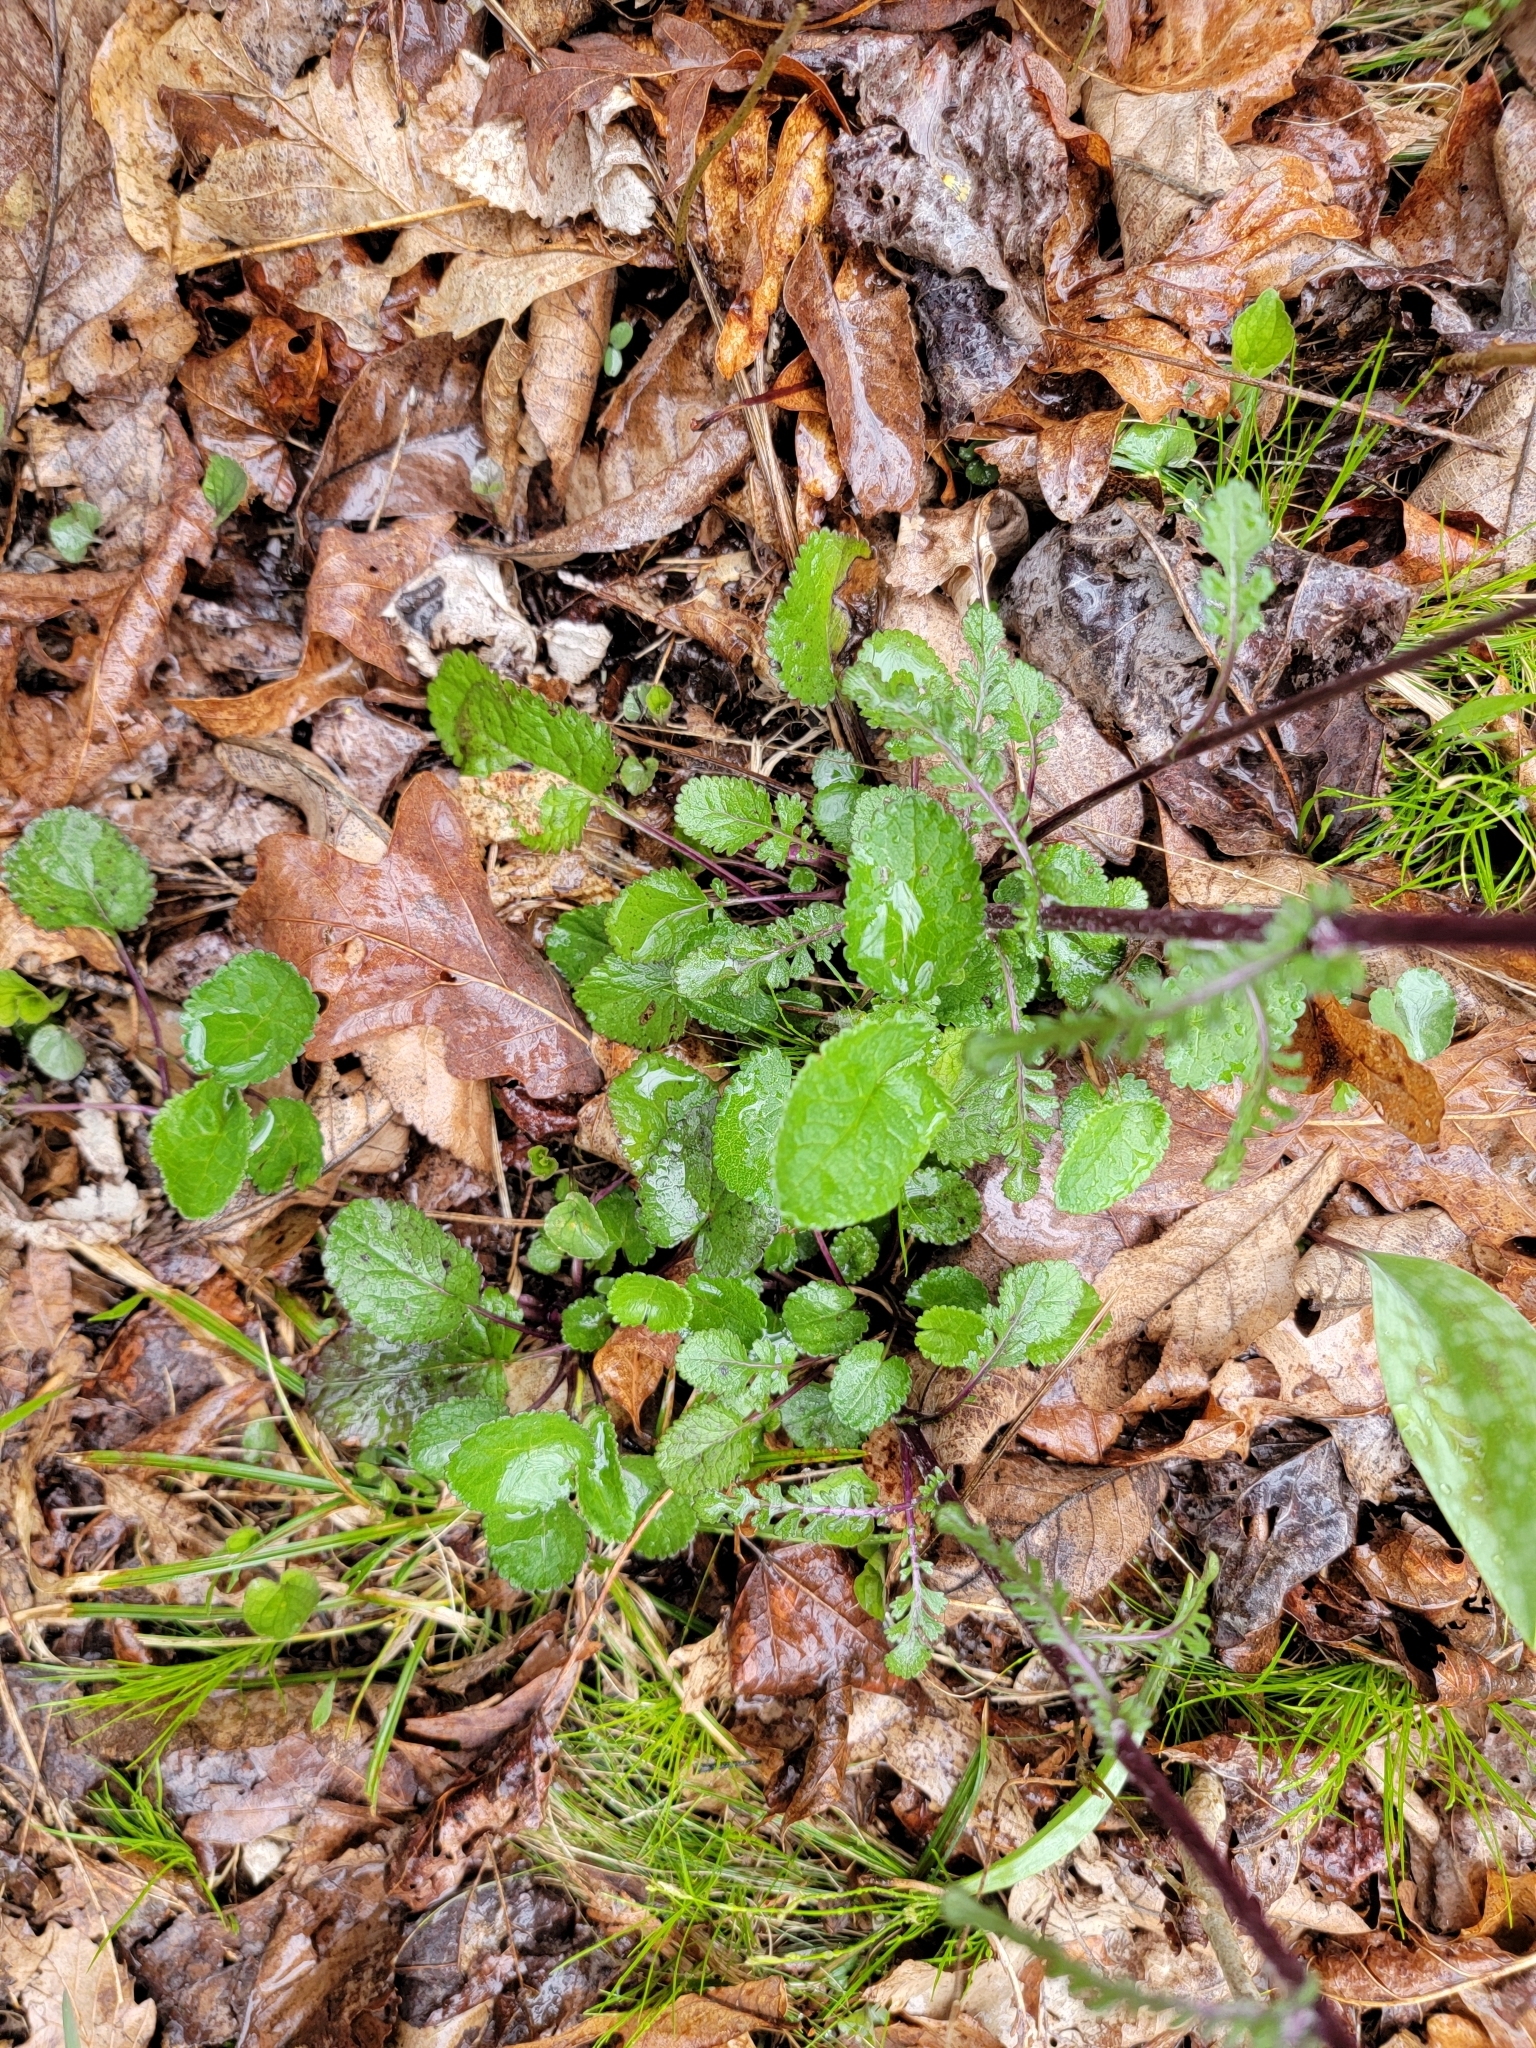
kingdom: Plantae
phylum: Tracheophyta
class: Magnoliopsida
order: Asterales
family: Asteraceae
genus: Packera
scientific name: Packera aurea
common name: Golden groundsel
